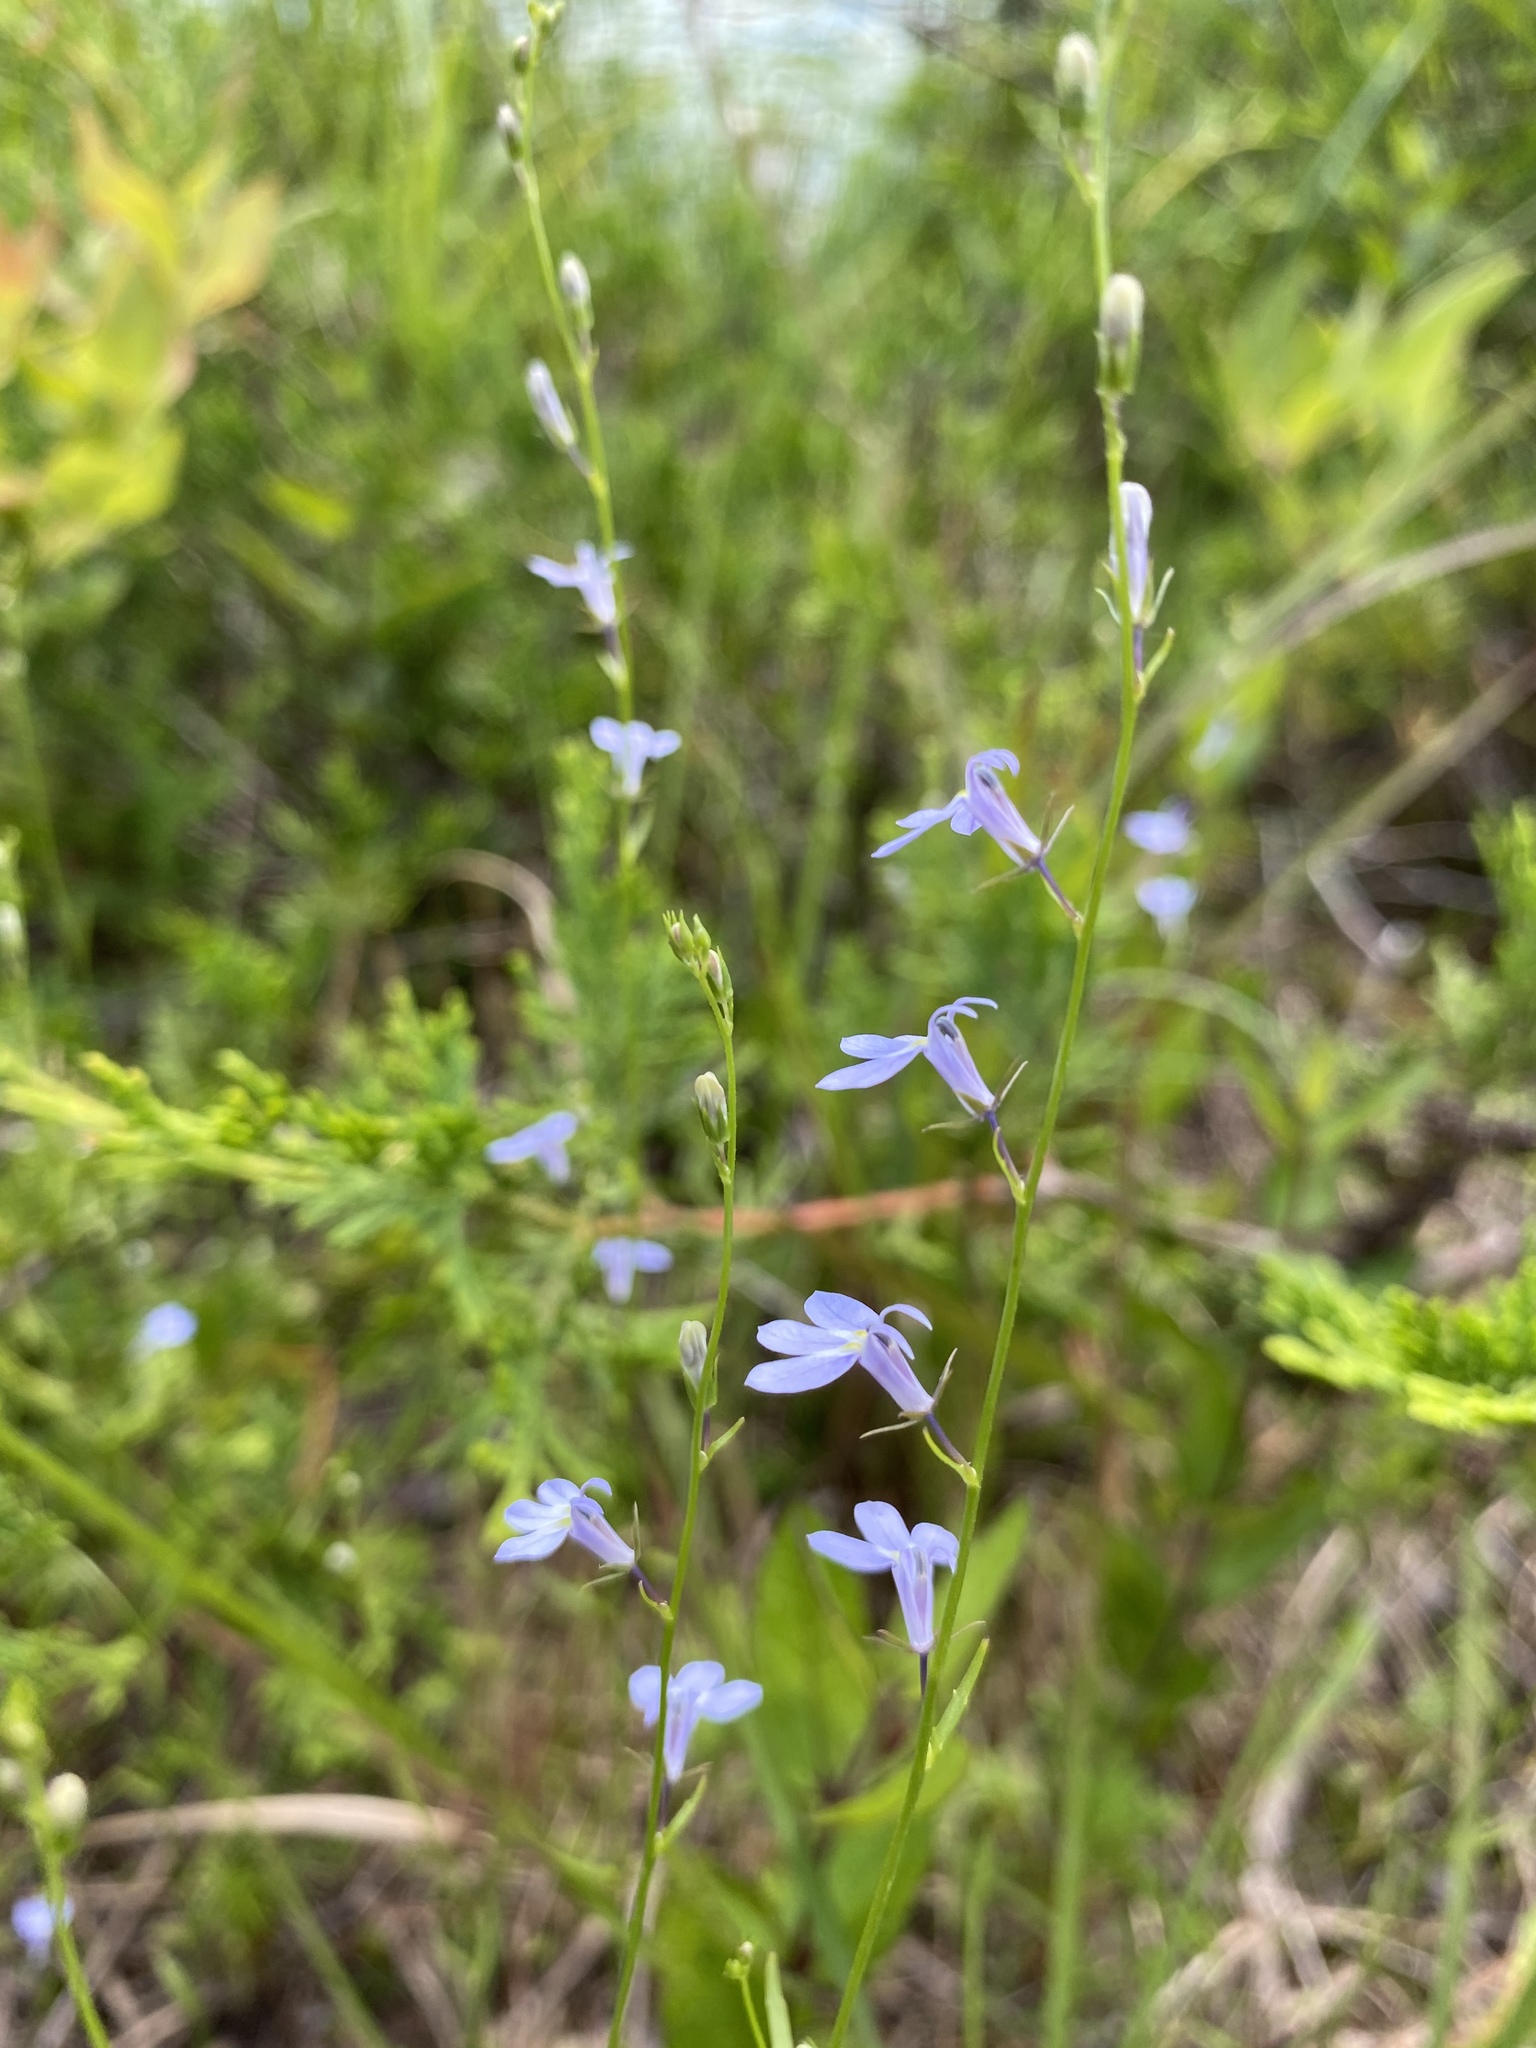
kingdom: Plantae
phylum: Tracheophyta
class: Magnoliopsida
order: Asterales
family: Campanulaceae
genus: Lobelia
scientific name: Lobelia nuttallii
